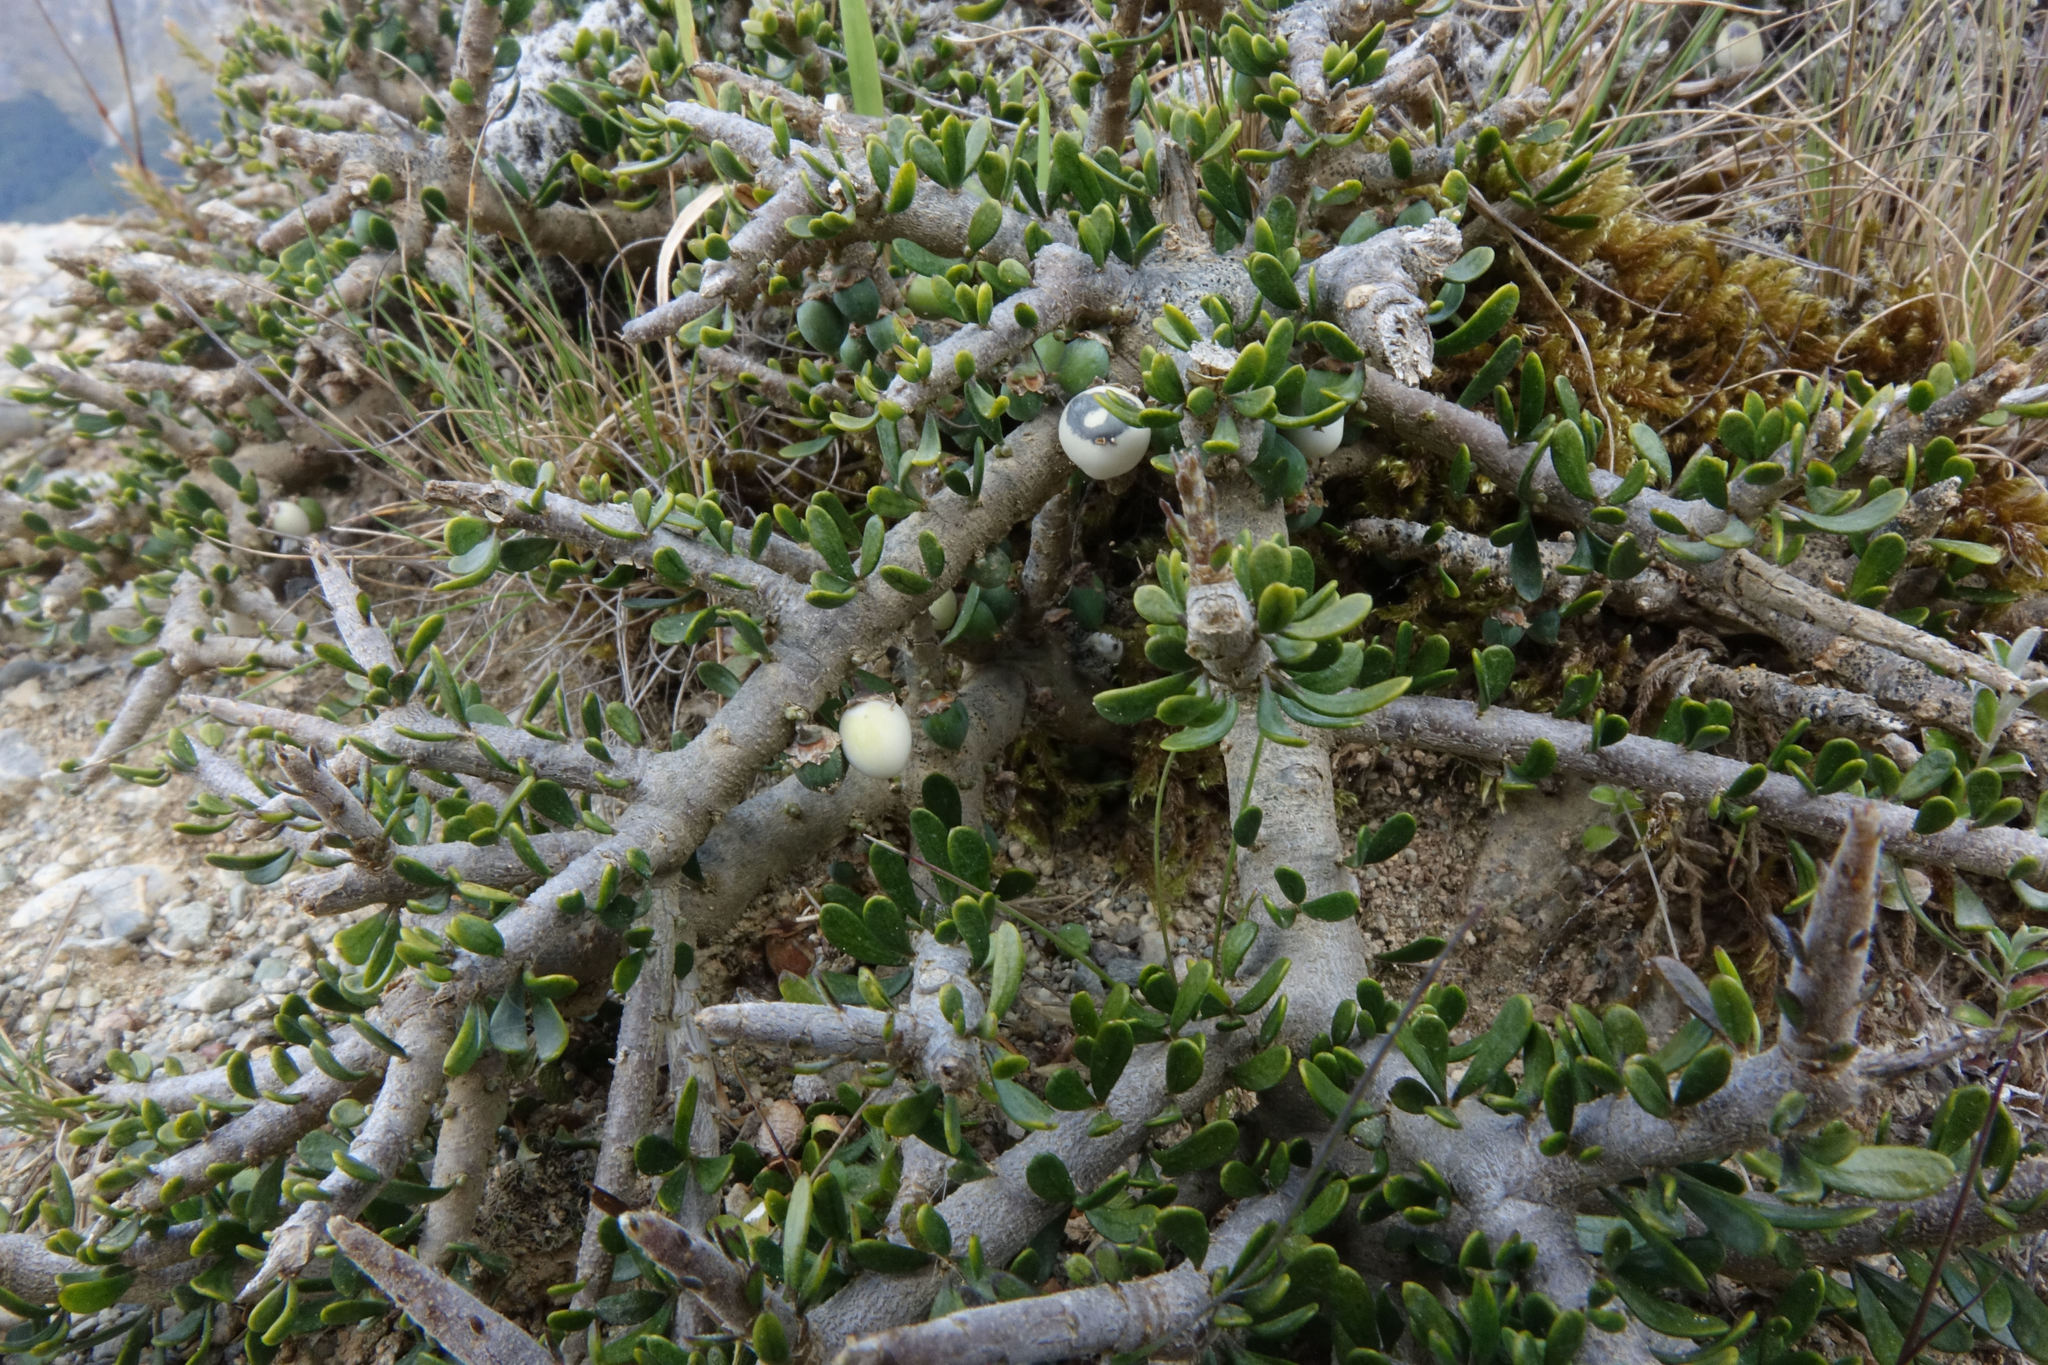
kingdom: Plantae
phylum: Tracheophyta
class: Magnoliopsida
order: Malpighiales
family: Violaceae
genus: Melicytus
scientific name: Melicytus alpinus
